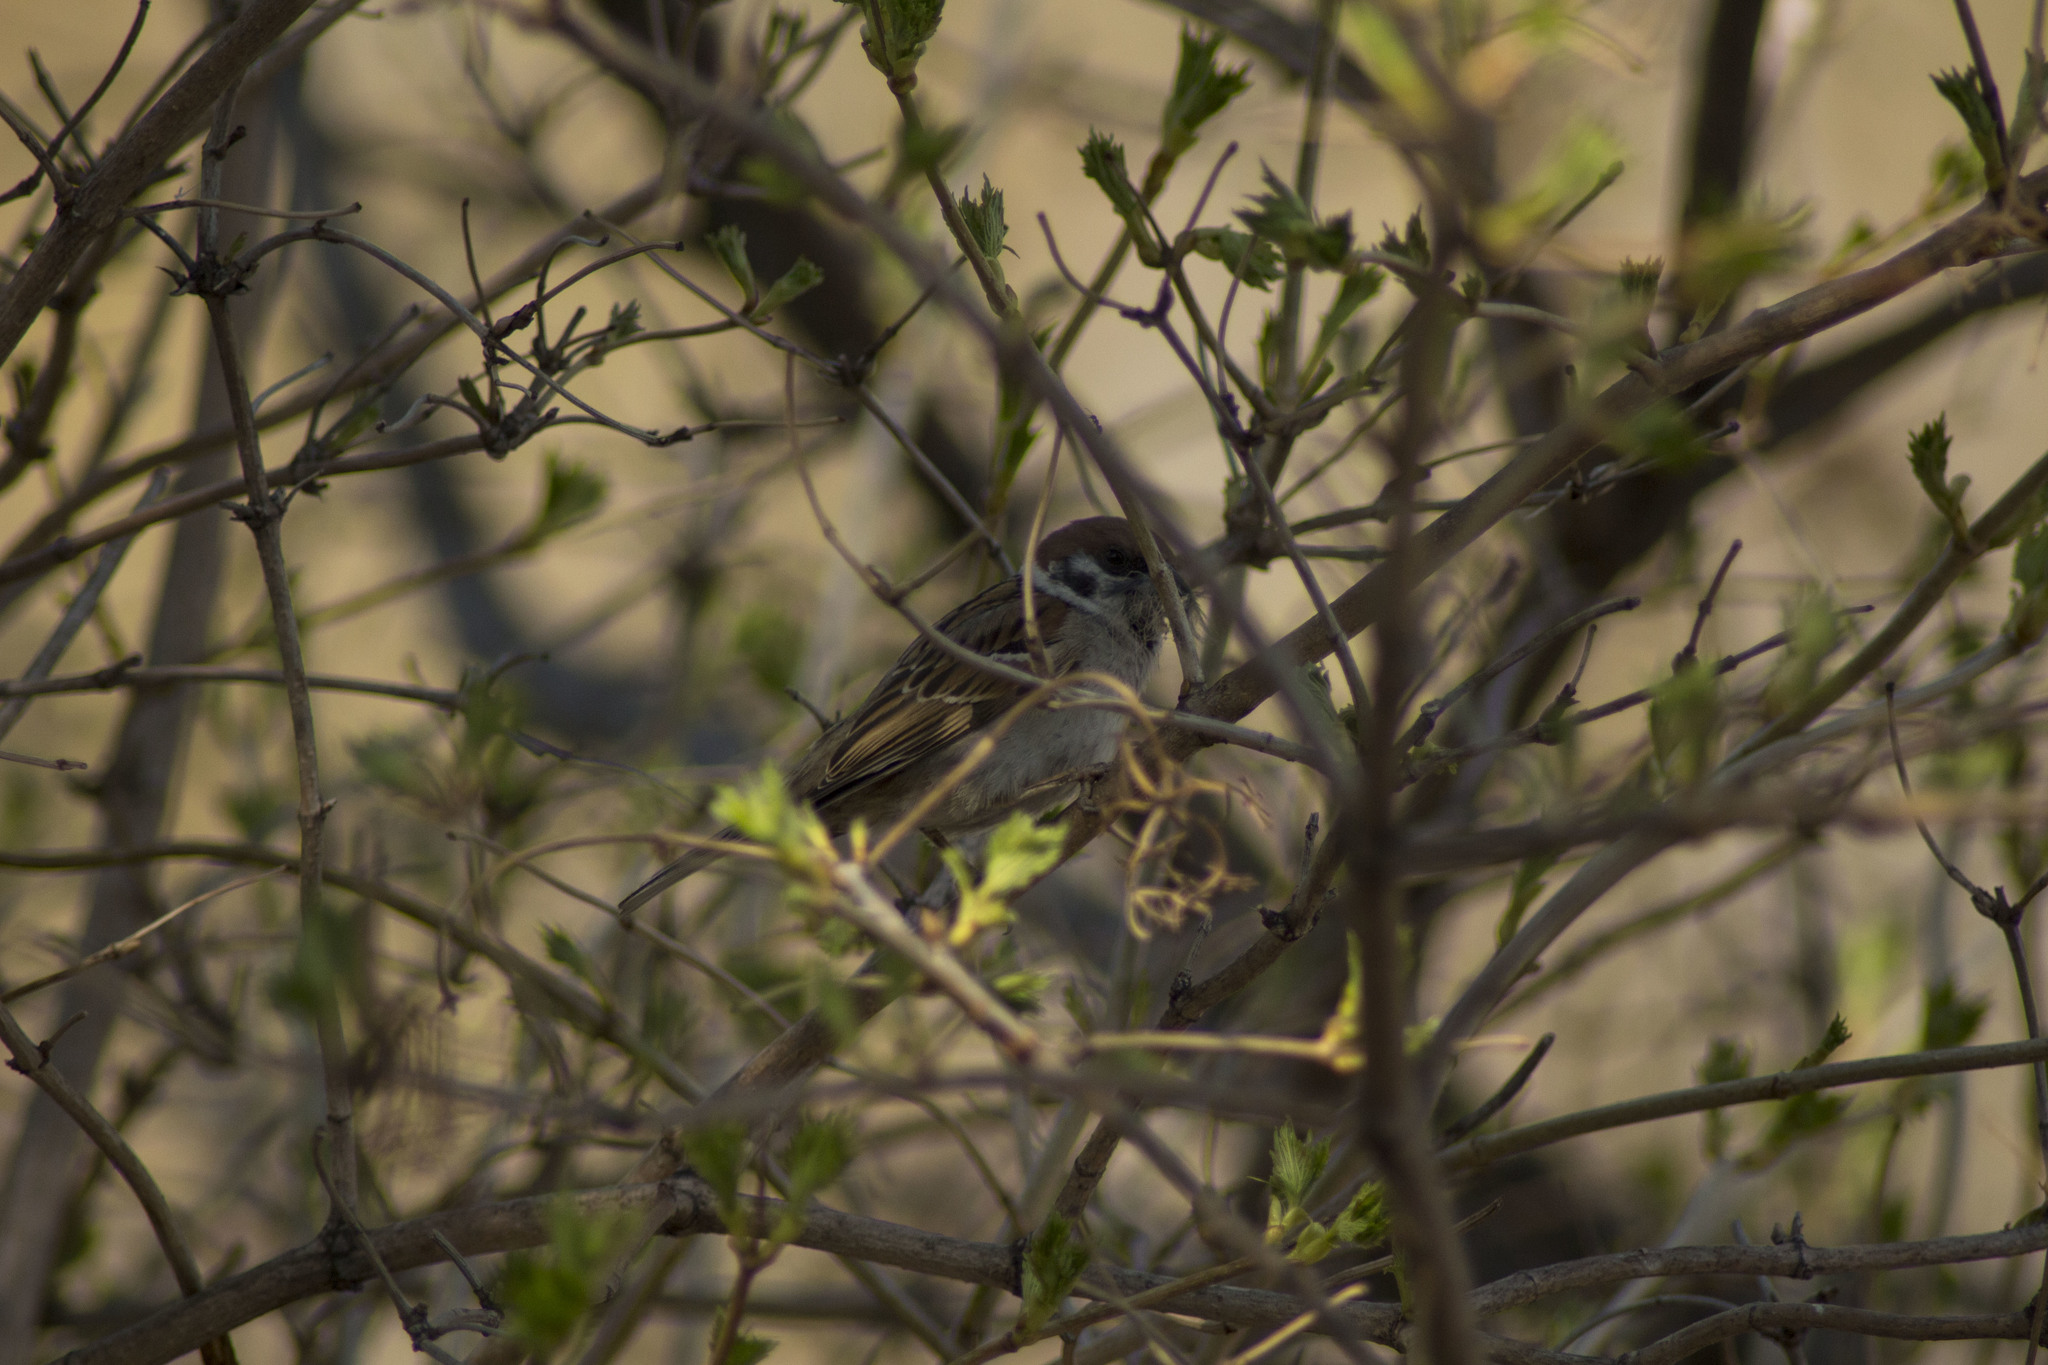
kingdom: Animalia
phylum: Chordata
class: Aves
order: Passeriformes
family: Passeridae
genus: Passer
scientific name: Passer montanus
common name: Eurasian tree sparrow
